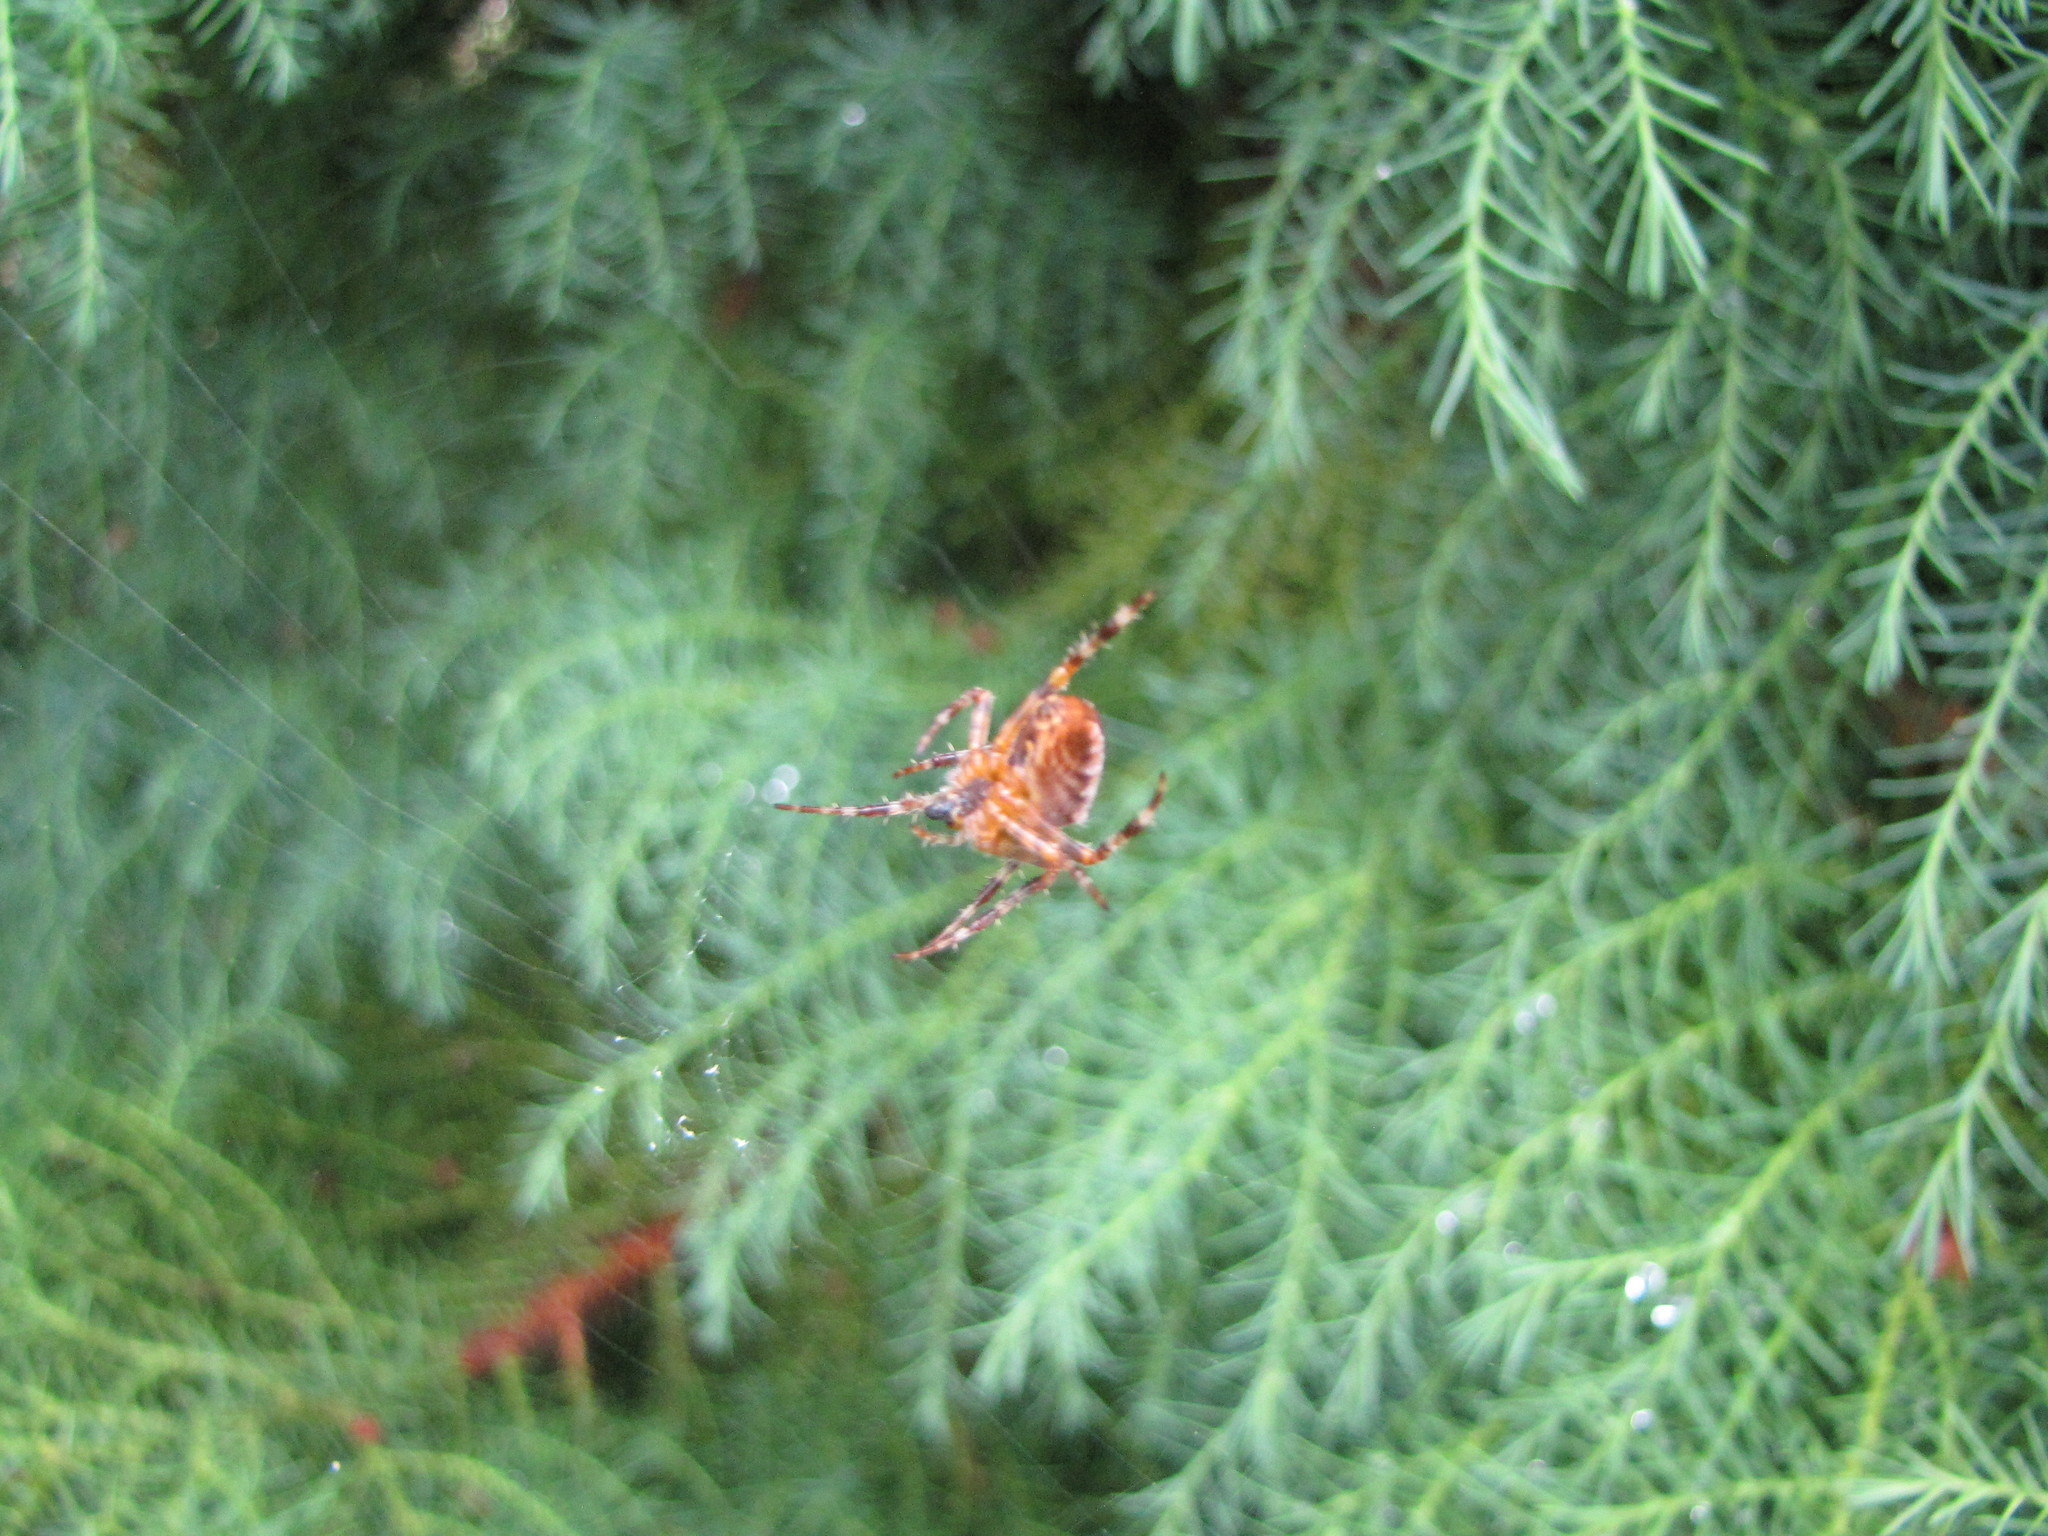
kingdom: Animalia
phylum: Arthropoda
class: Arachnida
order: Araneae
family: Araneidae
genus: Araneus
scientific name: Araneus diadematus
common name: Cross orbweaver
